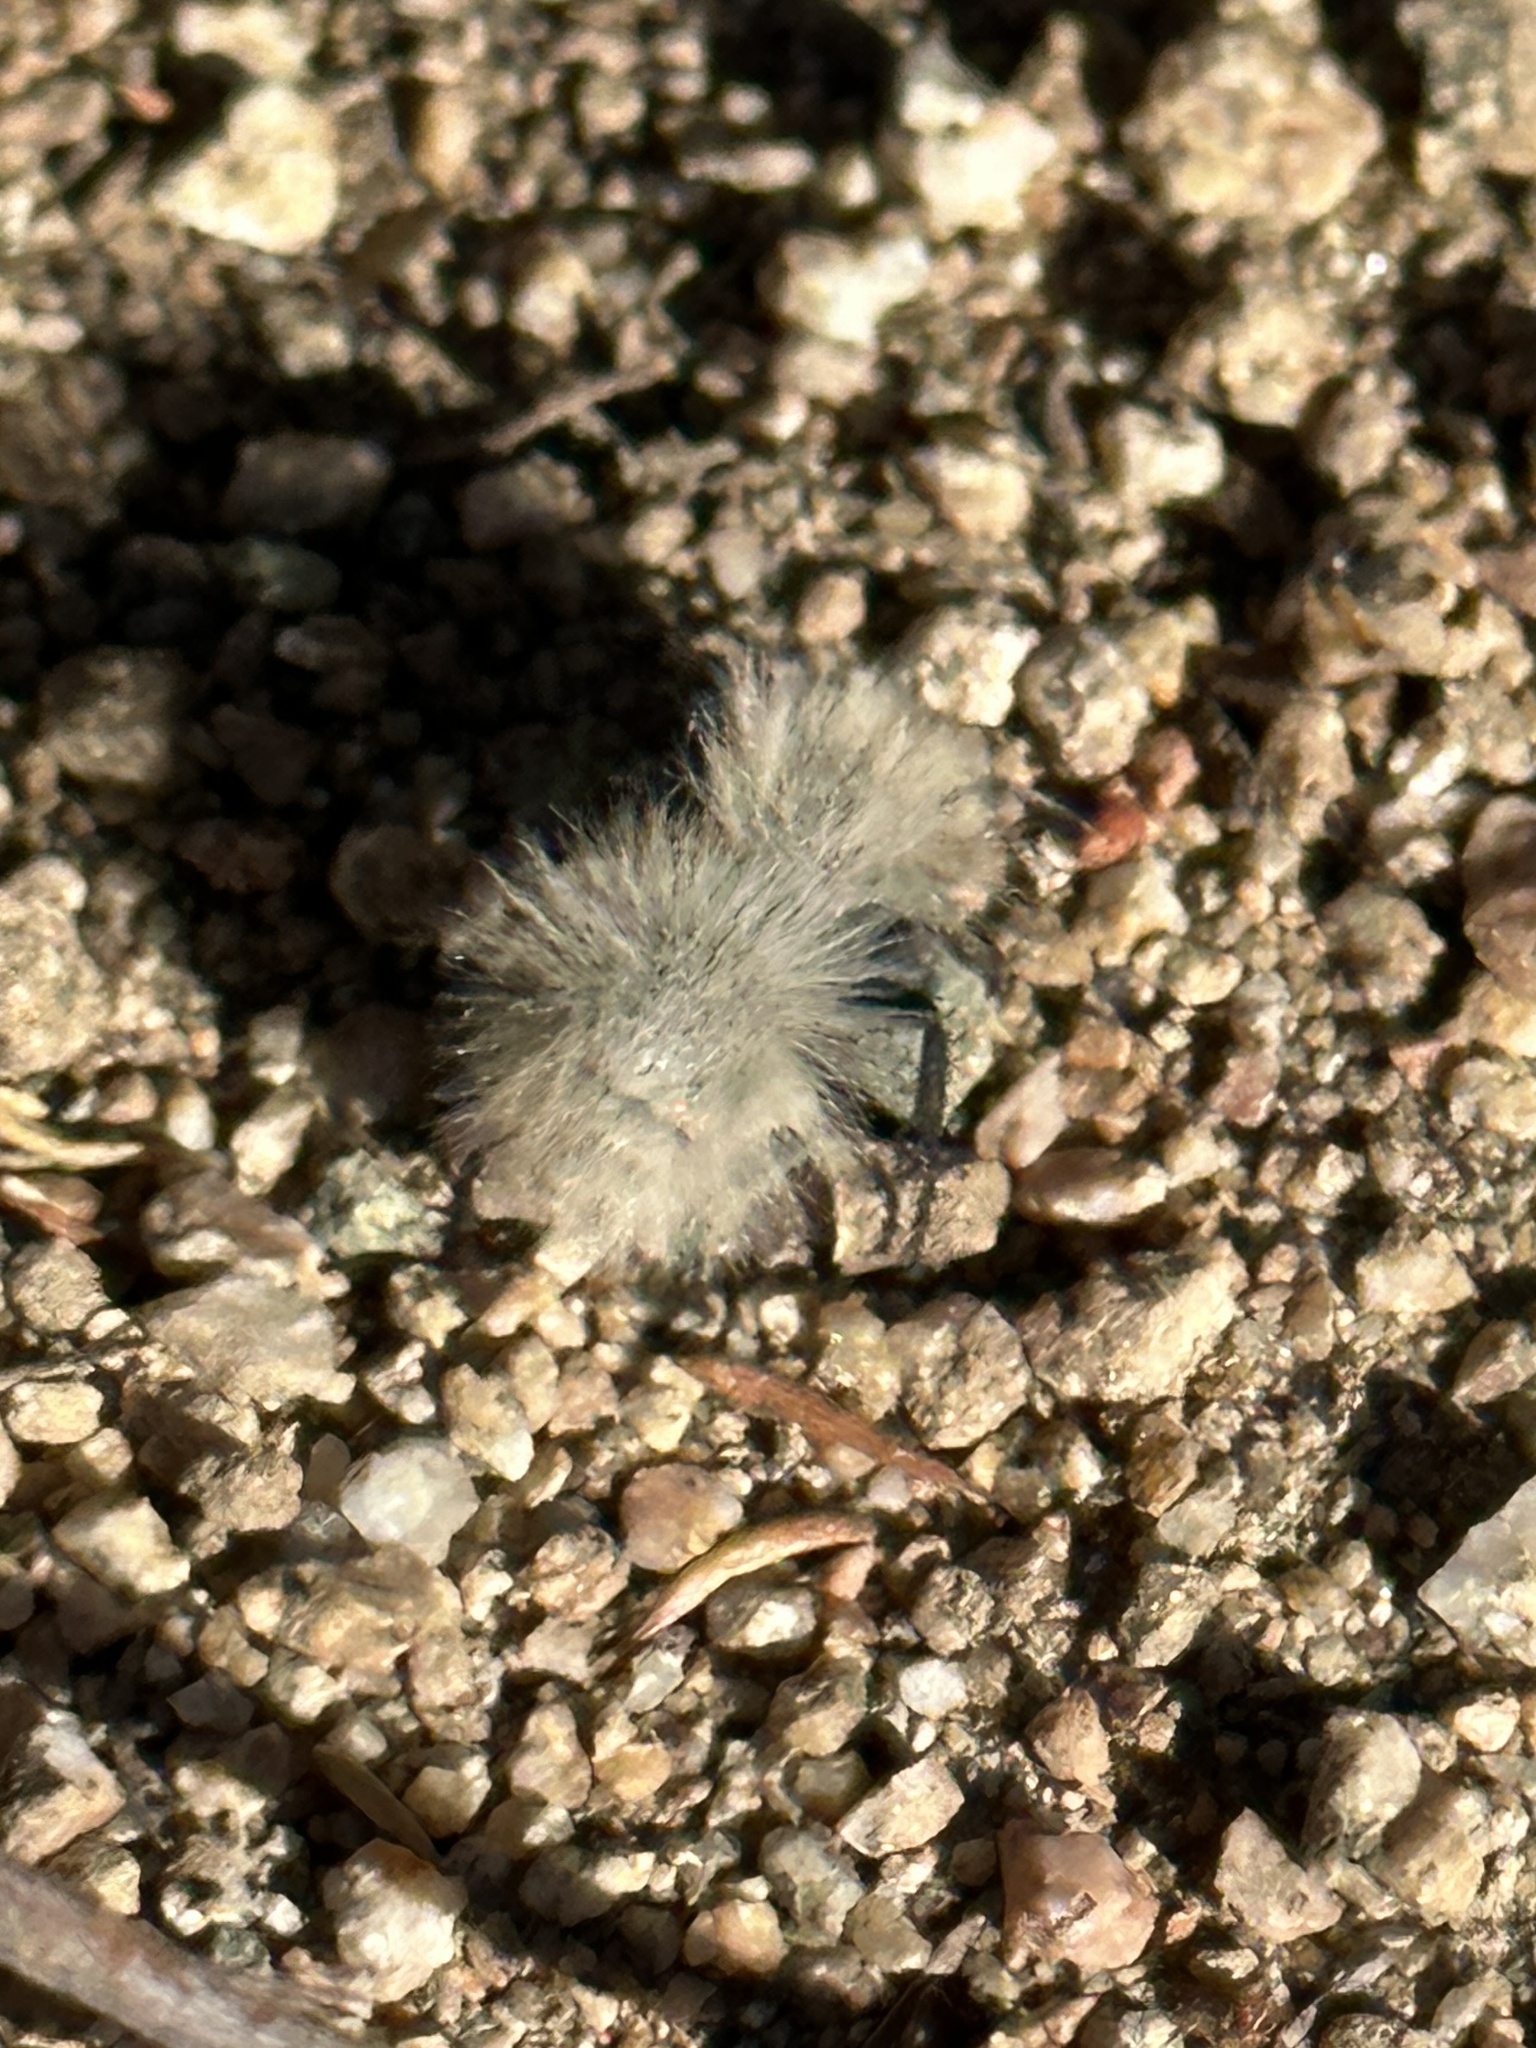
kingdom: Animalia
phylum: Arthropoda
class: Insecta
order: Hymenoptera
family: Mutillidae
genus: Dasymutilla
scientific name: Dasymutilla
